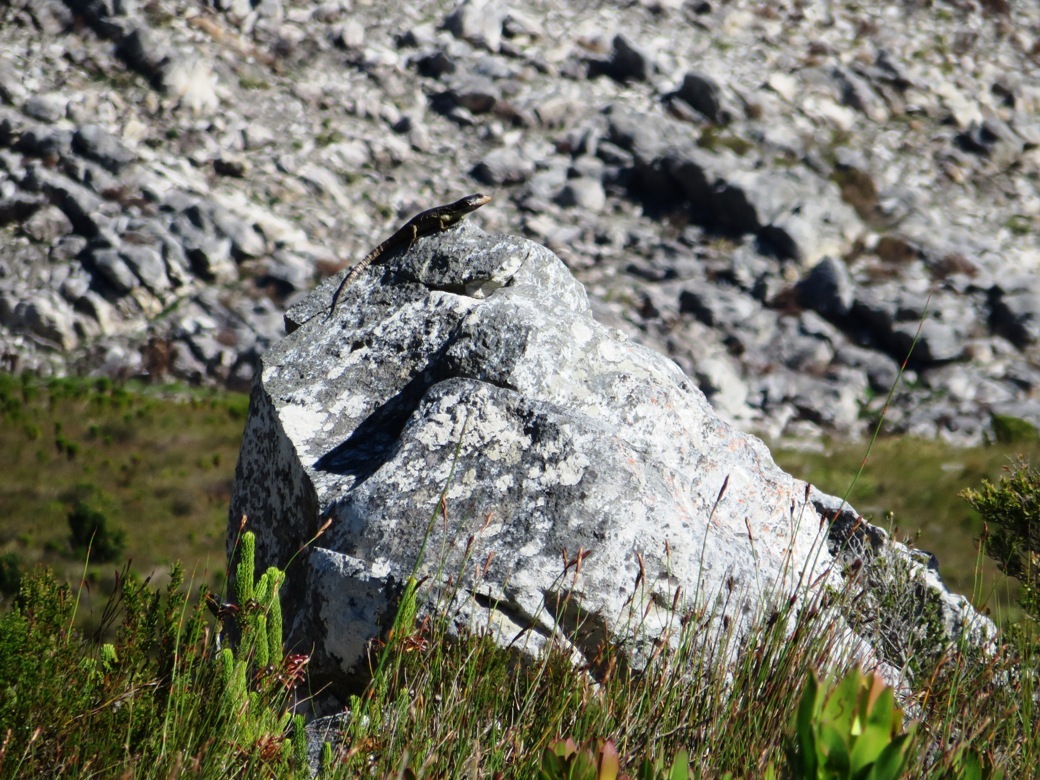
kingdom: Animalia
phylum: Chordata
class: Squamata
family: Cordylidae
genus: Pseudocordylus
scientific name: Pseudocordylus microlepidotus
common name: Cape crag lizard
